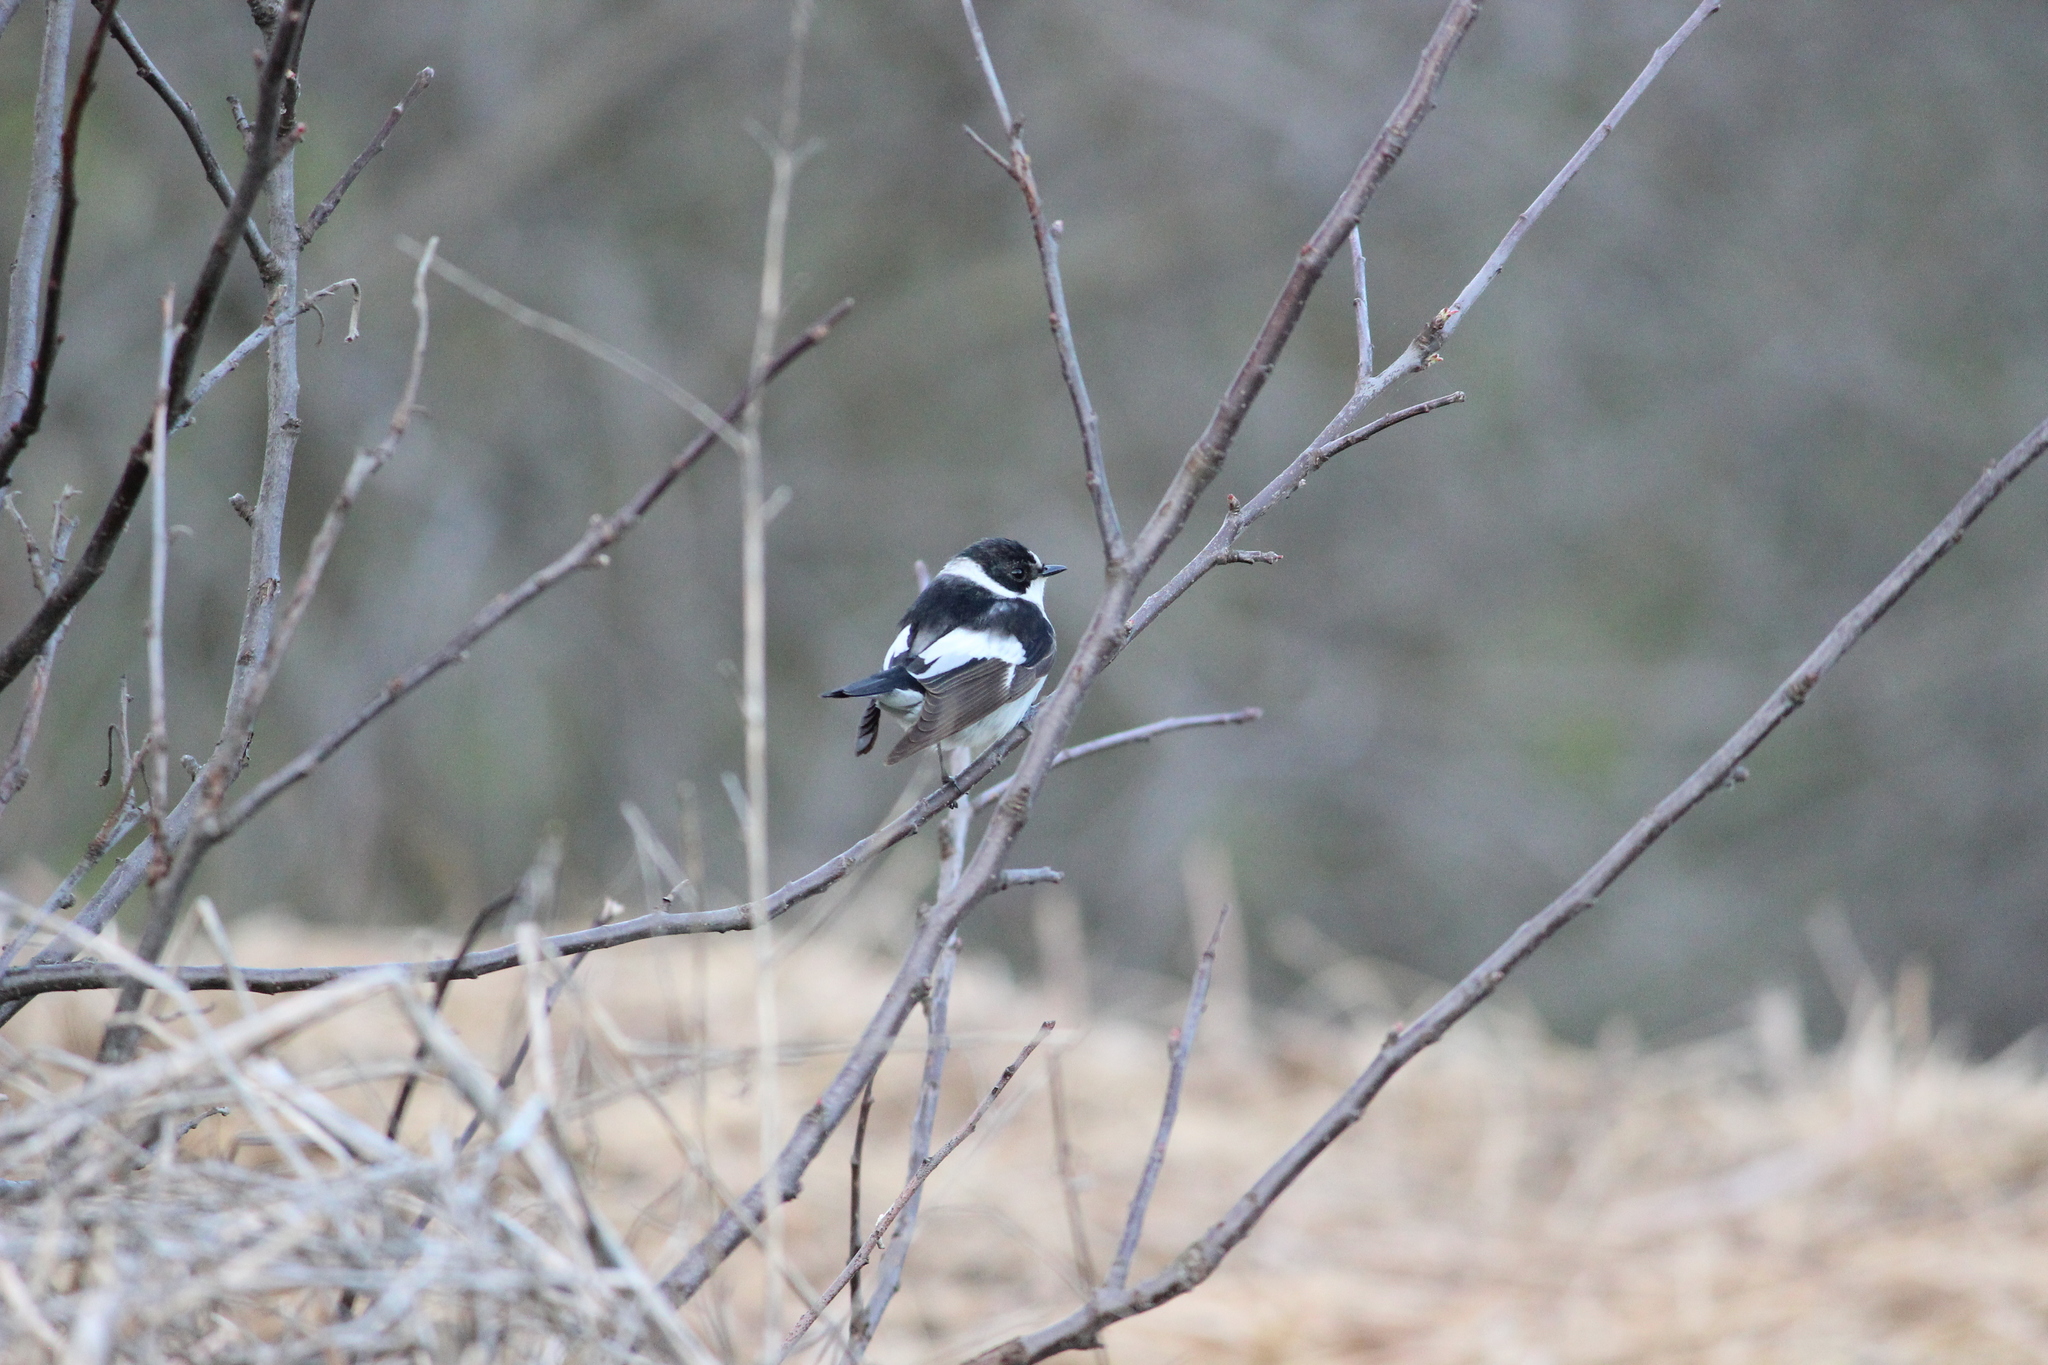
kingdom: Animalia
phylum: Chordata
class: Aves
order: Passeriformes
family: Muscicapidae
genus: Ficedula
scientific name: Ficedula albicollis
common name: Collared flycatcher
